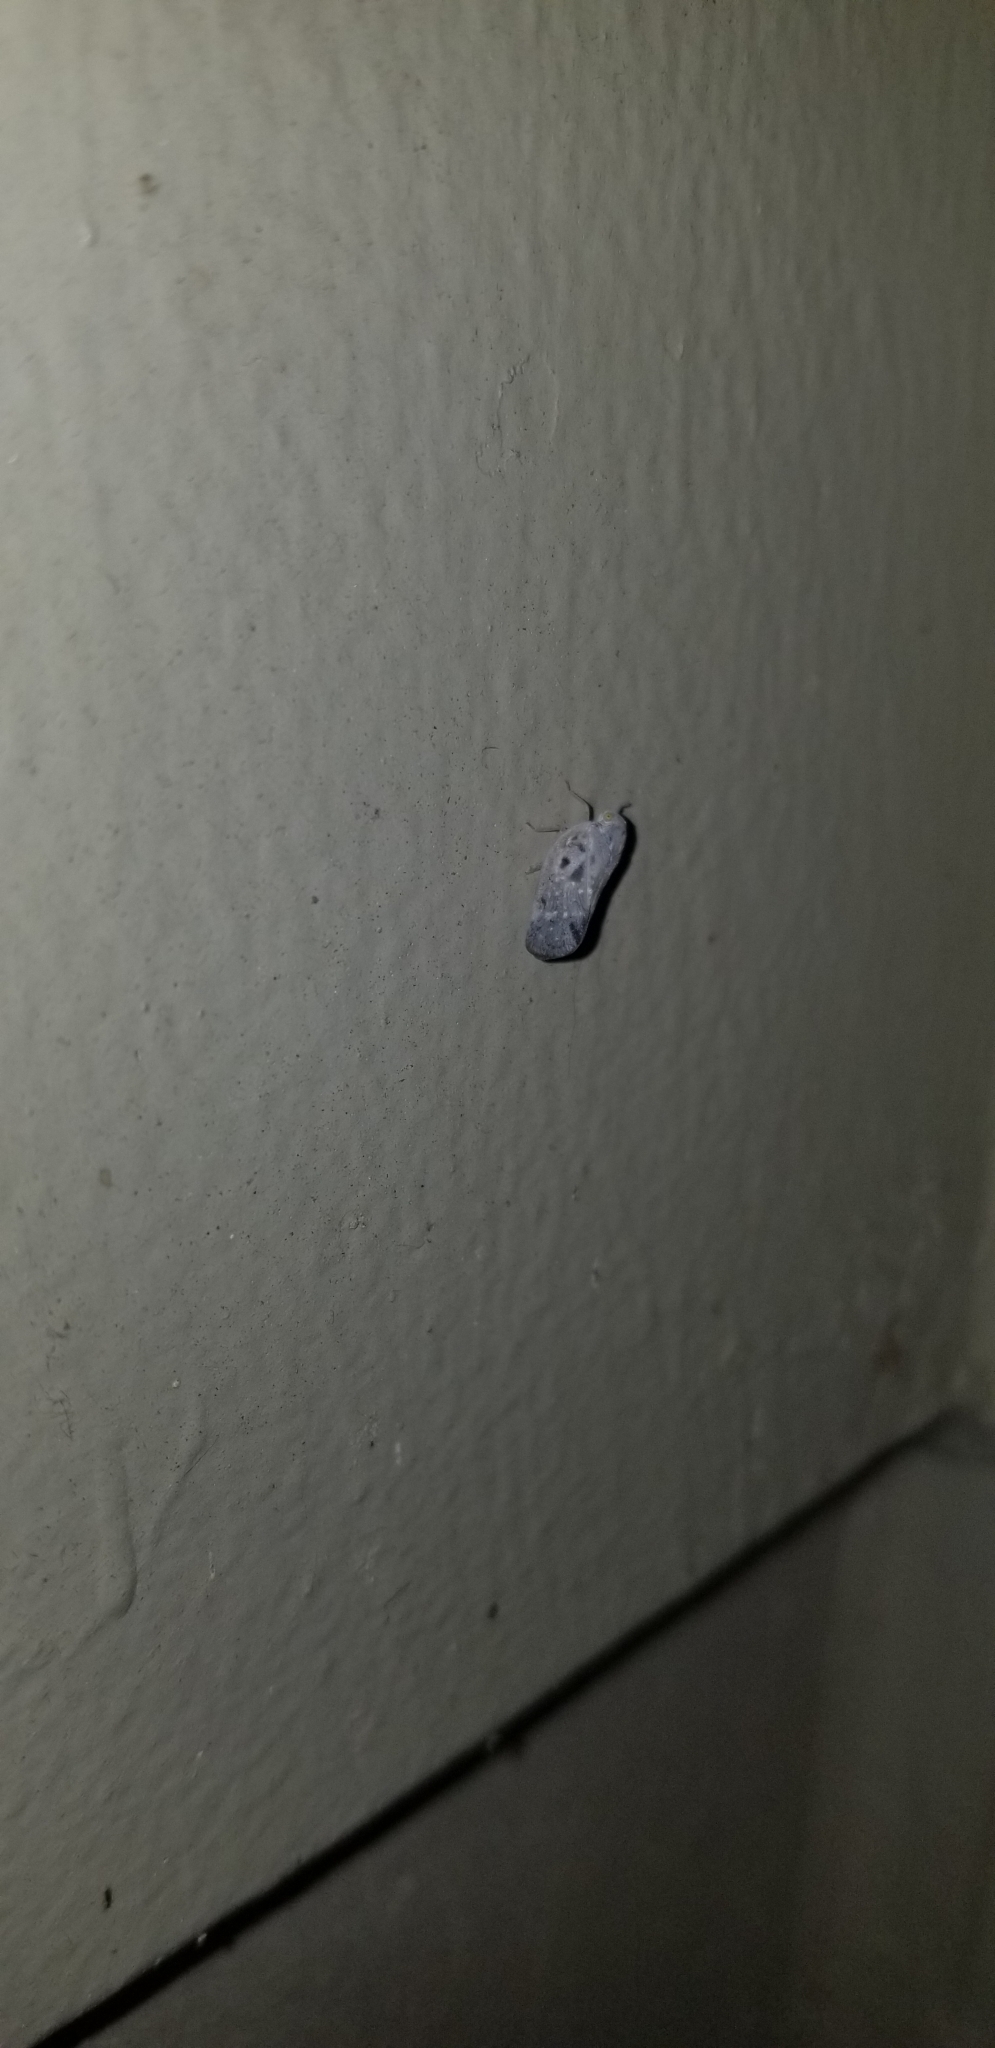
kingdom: Animalia
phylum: Arthropoda
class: Insecta
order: Hemiptera
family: Flatidae
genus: Metcalfa
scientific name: Metcalfa pruinosa
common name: Citrus flatid planthopper
